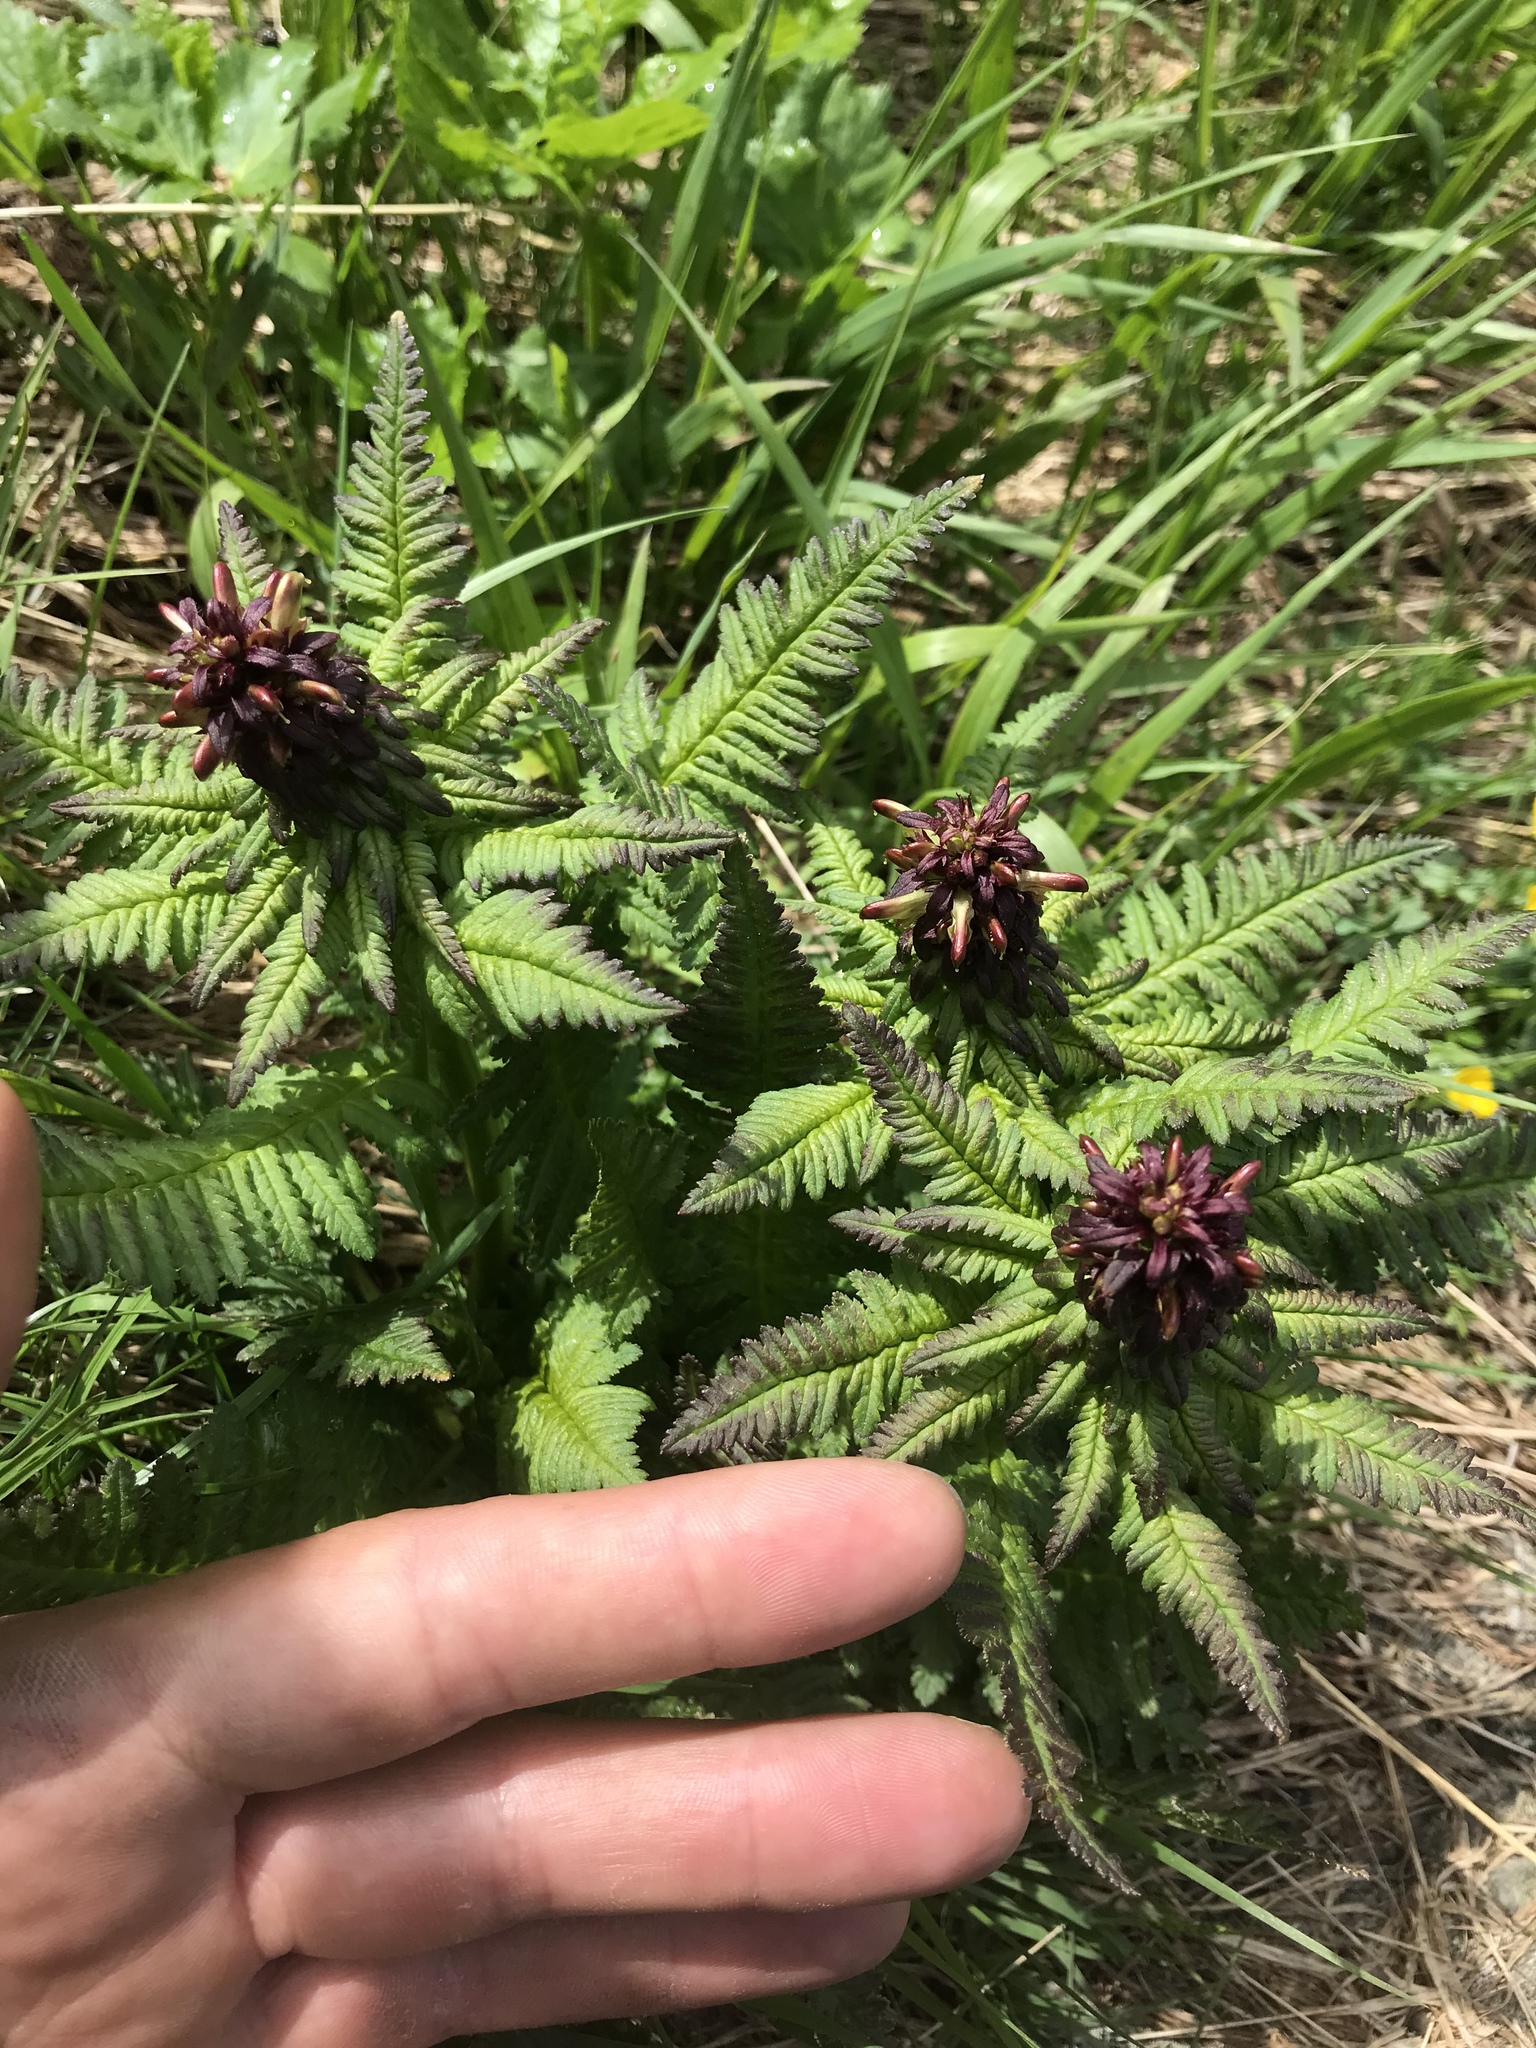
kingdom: Plantae
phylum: Tracheophyta
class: Magnoliopsida
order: Lamiales
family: Orobanchaceae
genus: Pedicularis
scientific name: Pedicularis recutita
